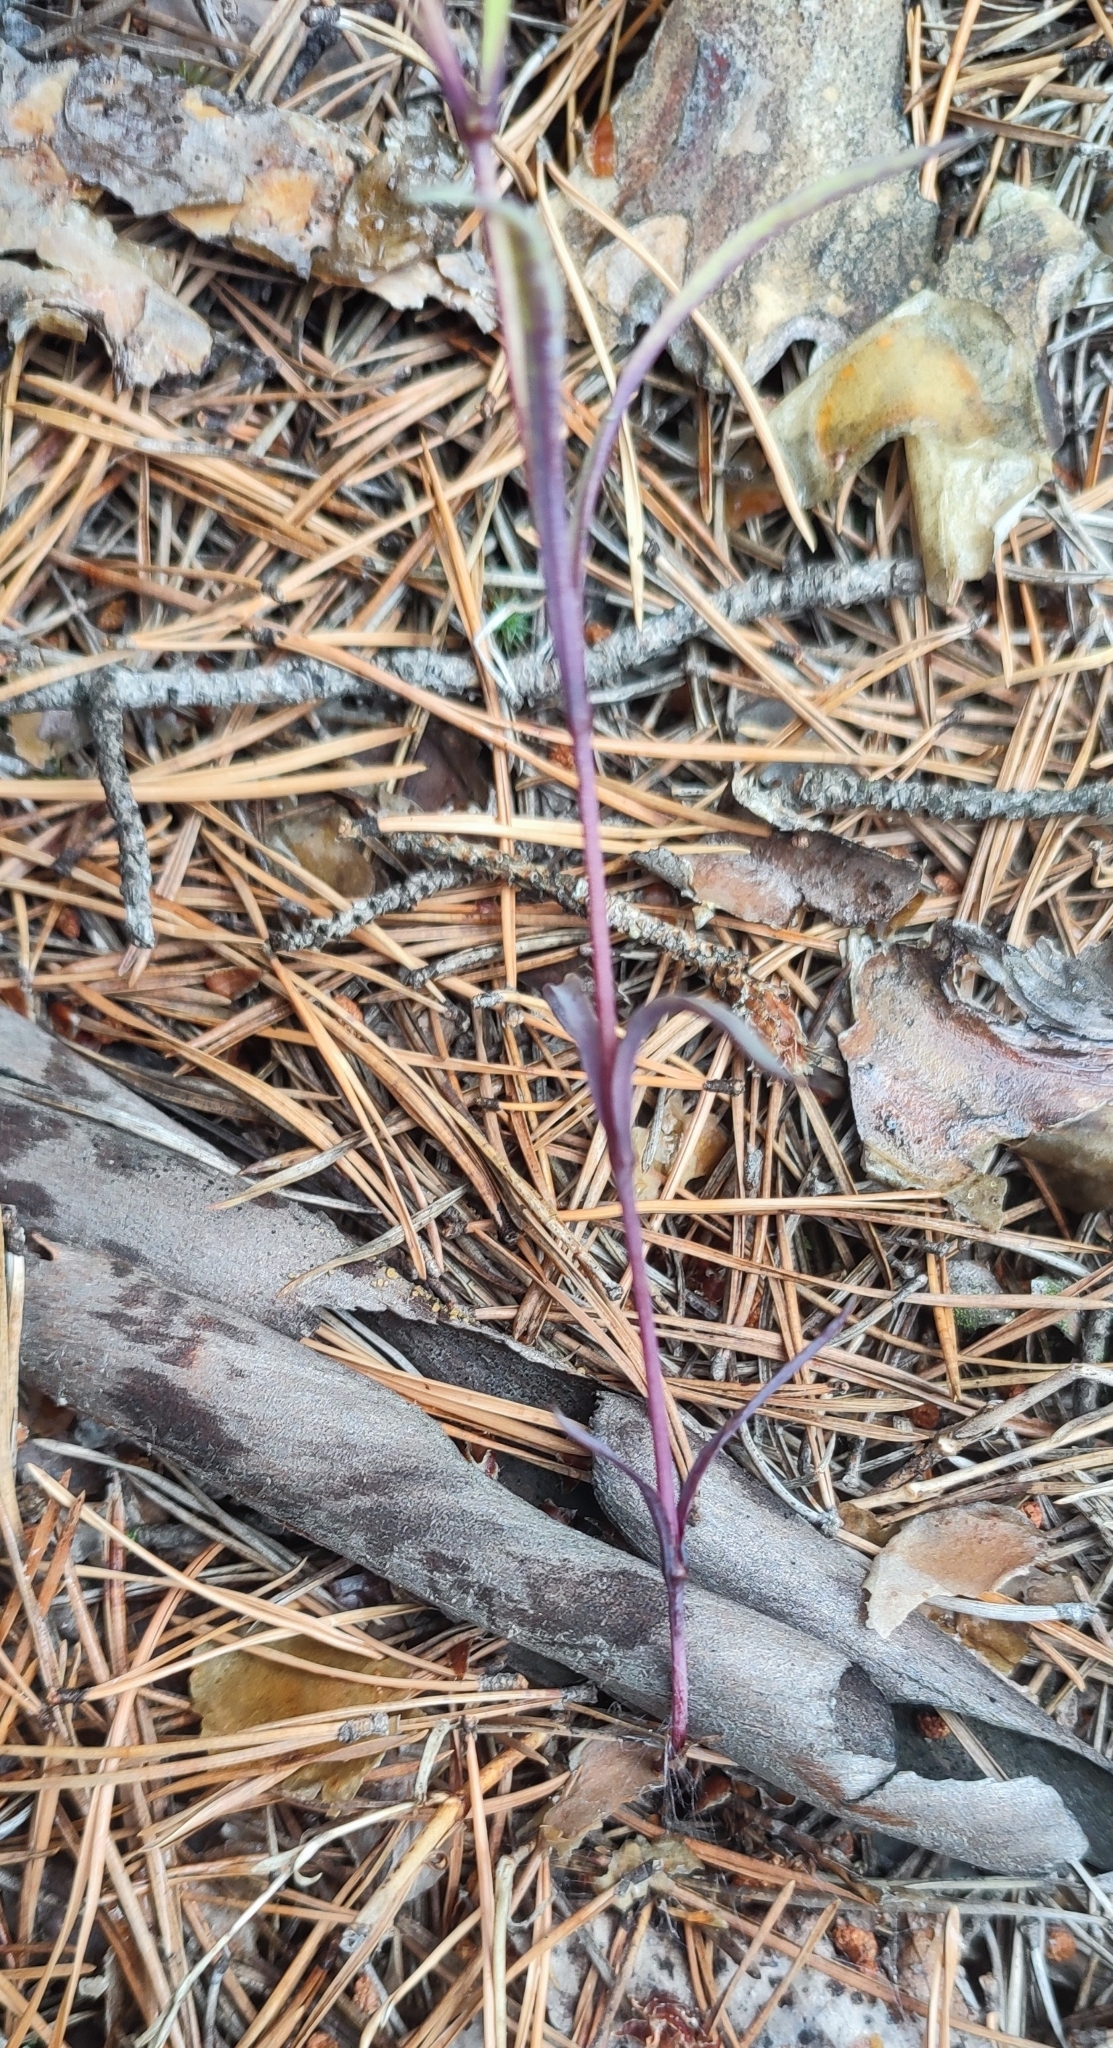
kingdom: Plantae
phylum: Tracheophyta
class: Magnoliopsida
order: Caryophyllales
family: Caryophyllaceae
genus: Dianthus
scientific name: Dianthus chinensis
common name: Rainbow pink
